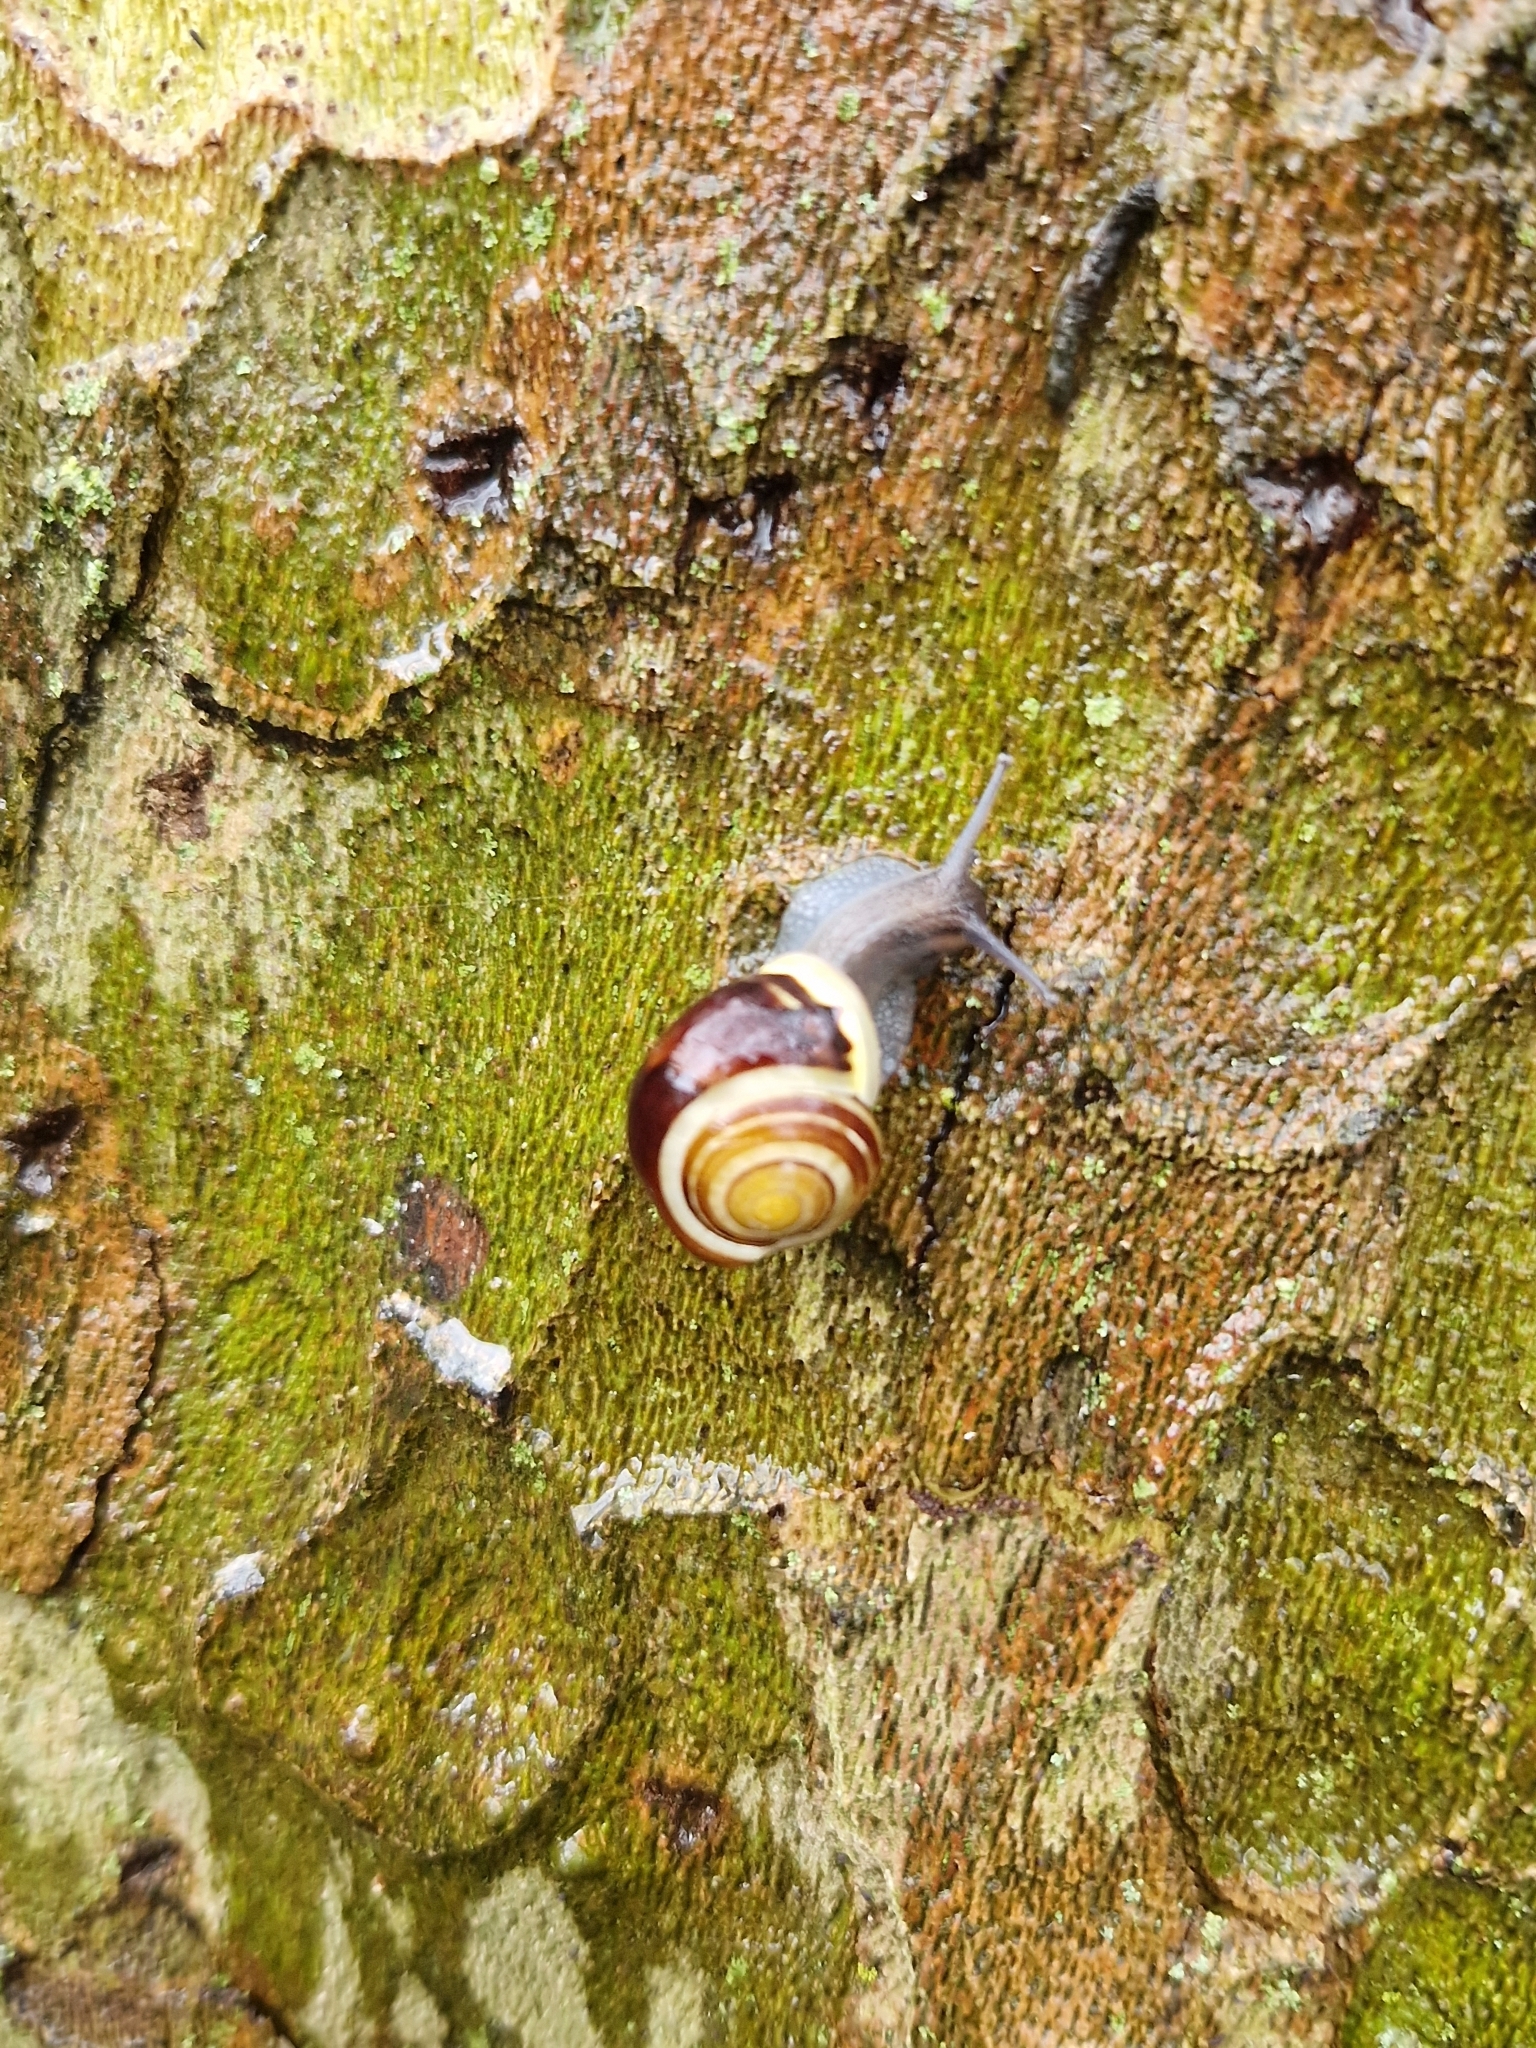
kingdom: Animalia
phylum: Mollusca
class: Gastropoda
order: Stylommatophora
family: Helicidae
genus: Cepaea
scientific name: Cepaea hortensis
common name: White-lip gardensnail
